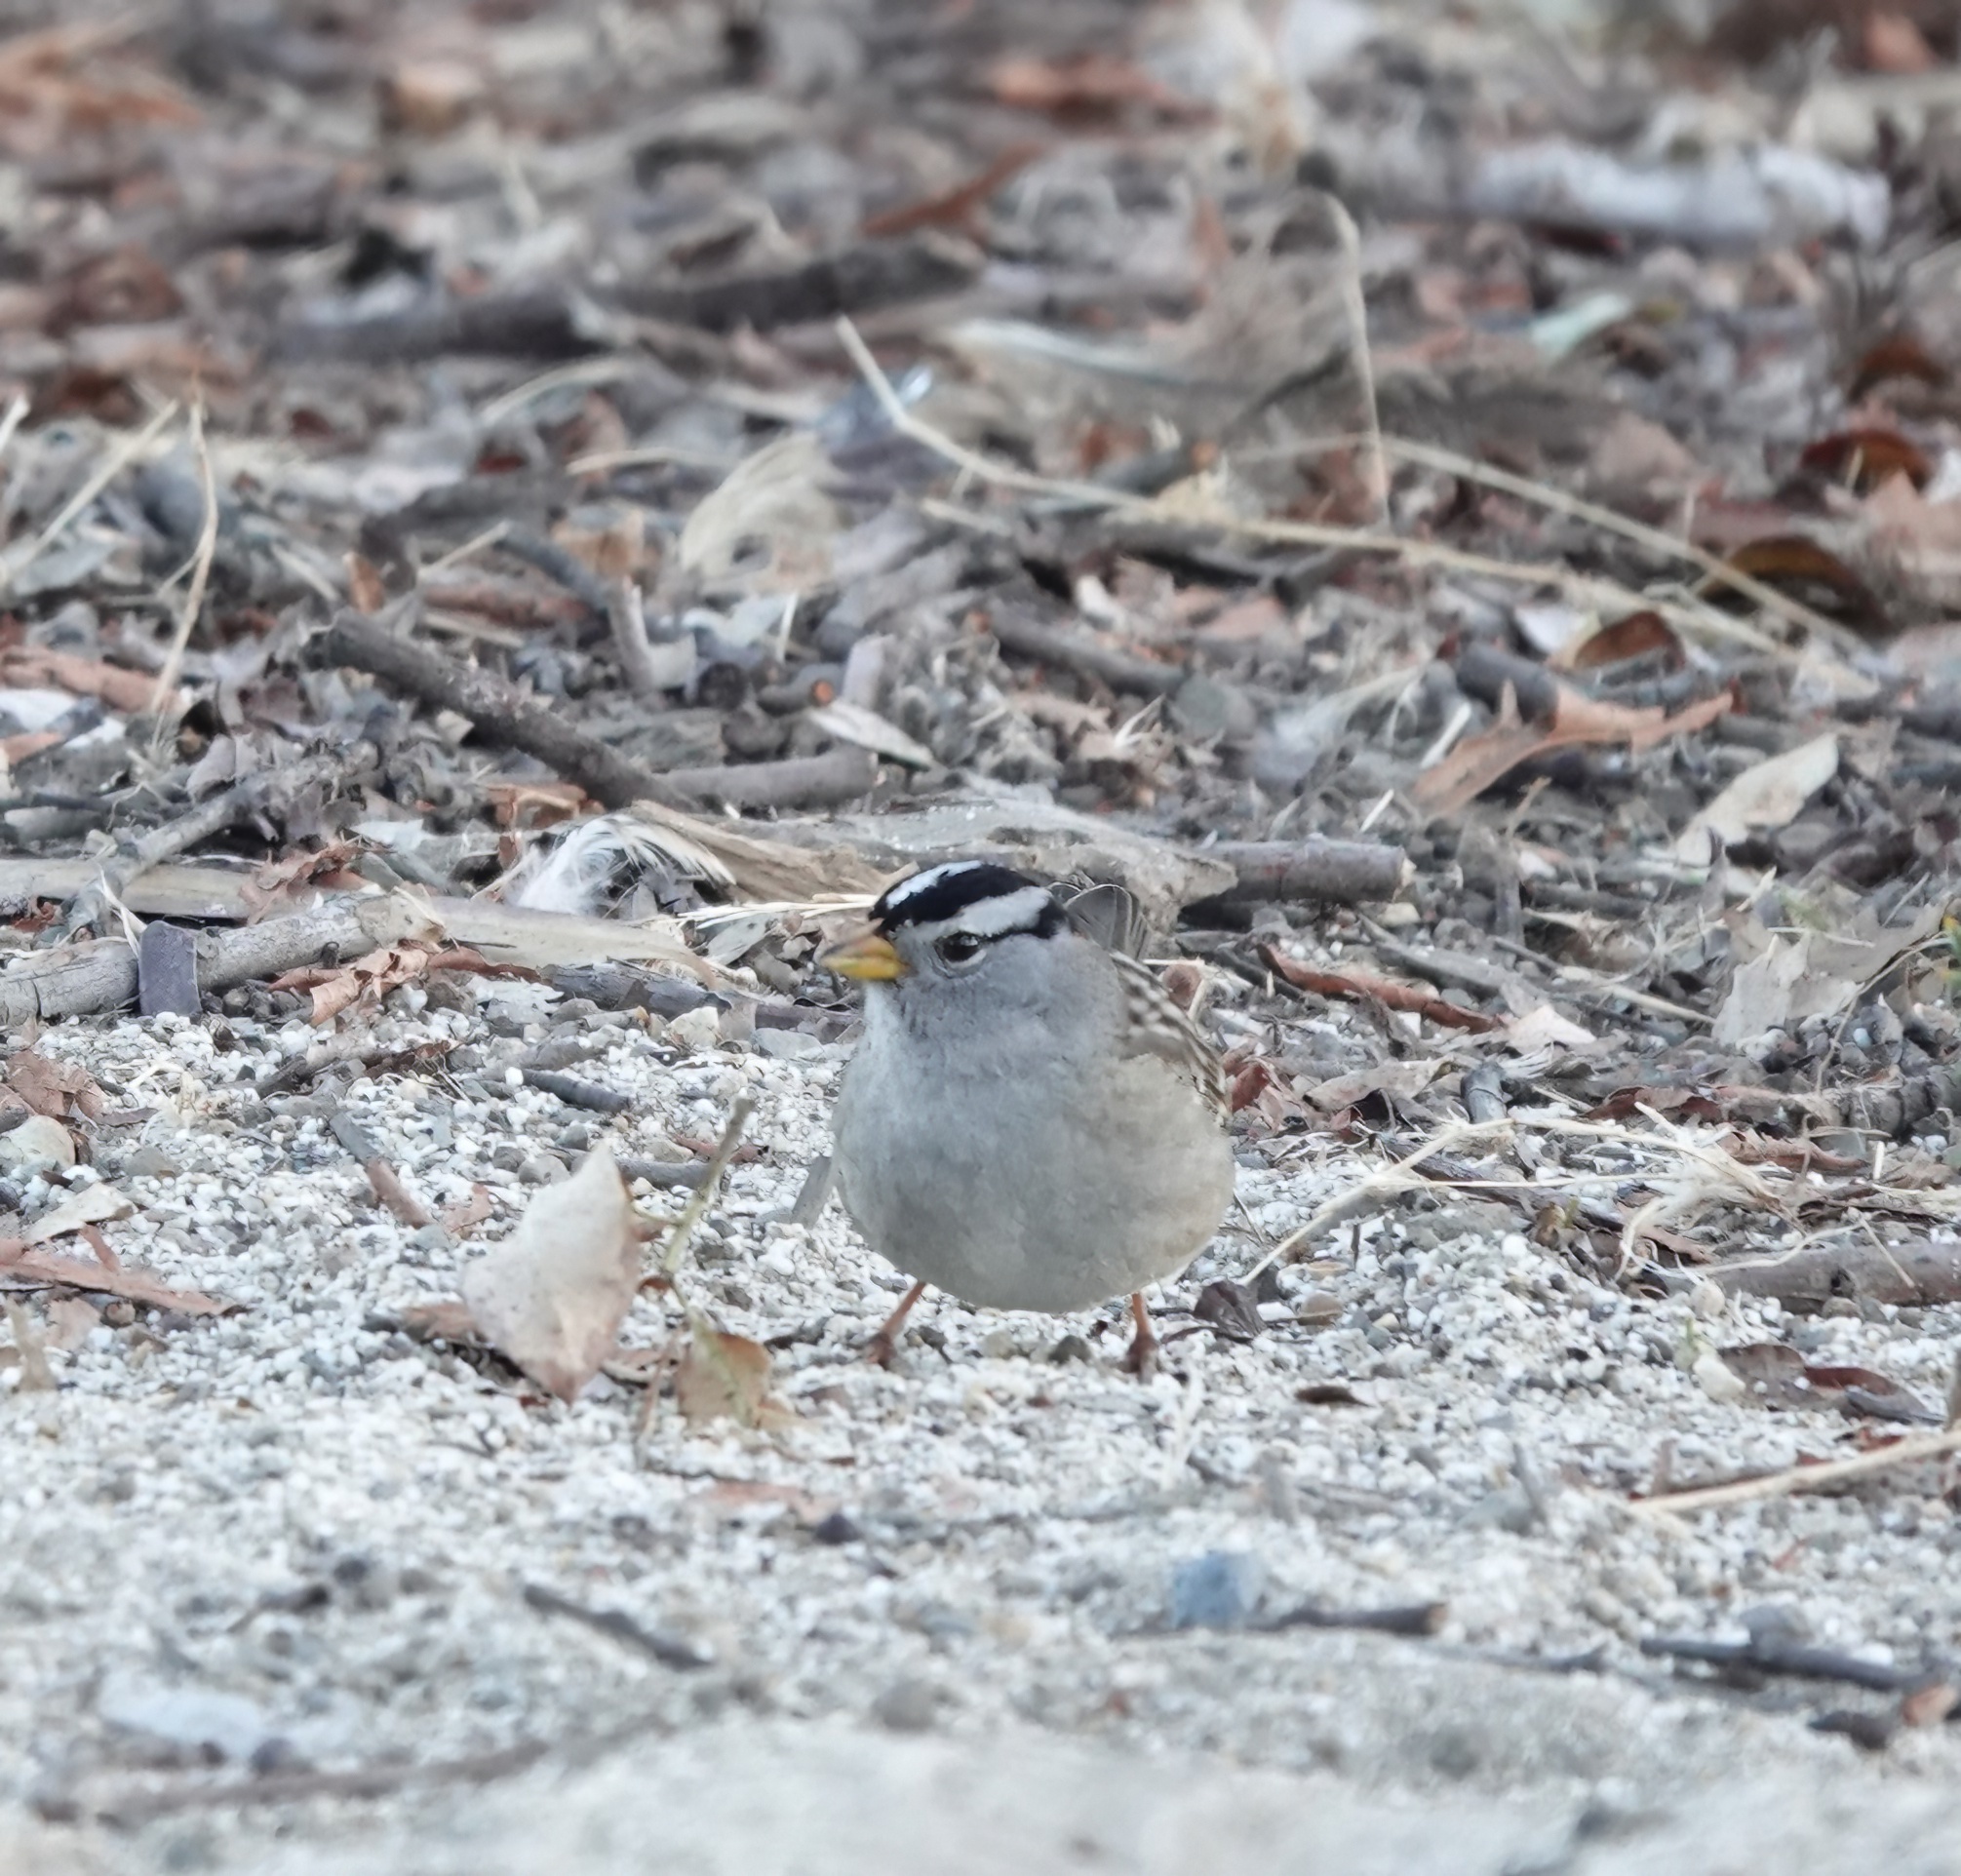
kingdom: Animalia
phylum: Chordata
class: Aves
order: Passeriformes
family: Passerellidae
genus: Zonotrichia
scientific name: Zonotrichia leucophrys
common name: White-crowned sparrow
